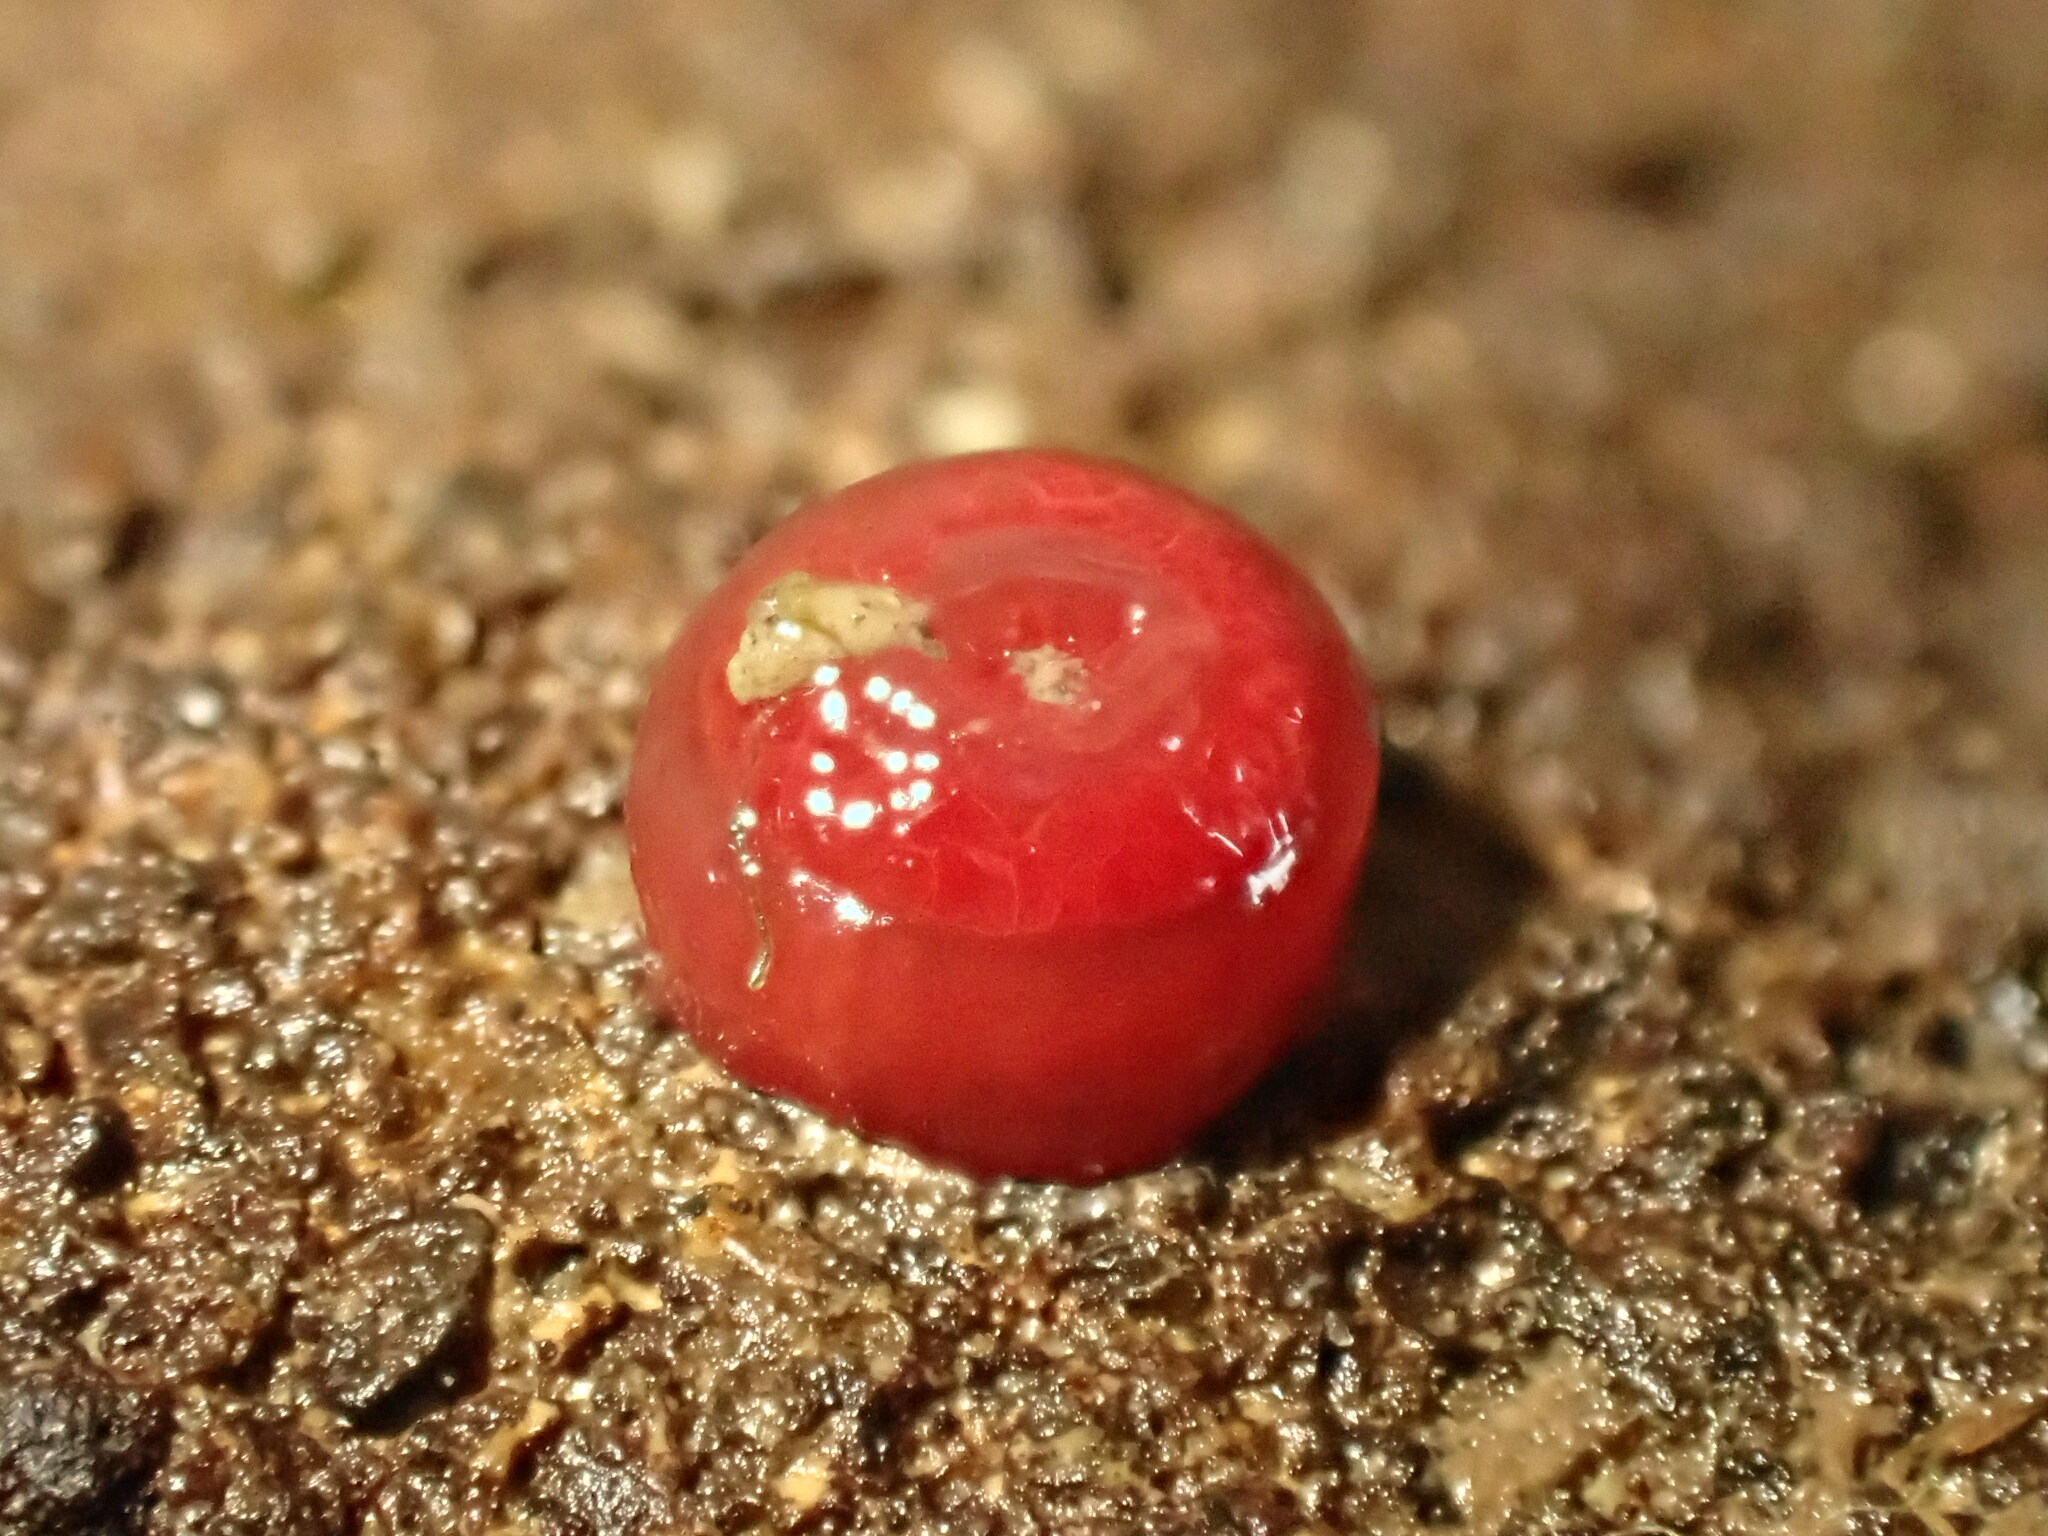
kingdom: Animalia
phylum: Cnidaria
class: Anthozoa
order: Actiniaria
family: Actiniidae
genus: Actinia
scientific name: Actinia tenebrosa
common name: Waratah anemone
